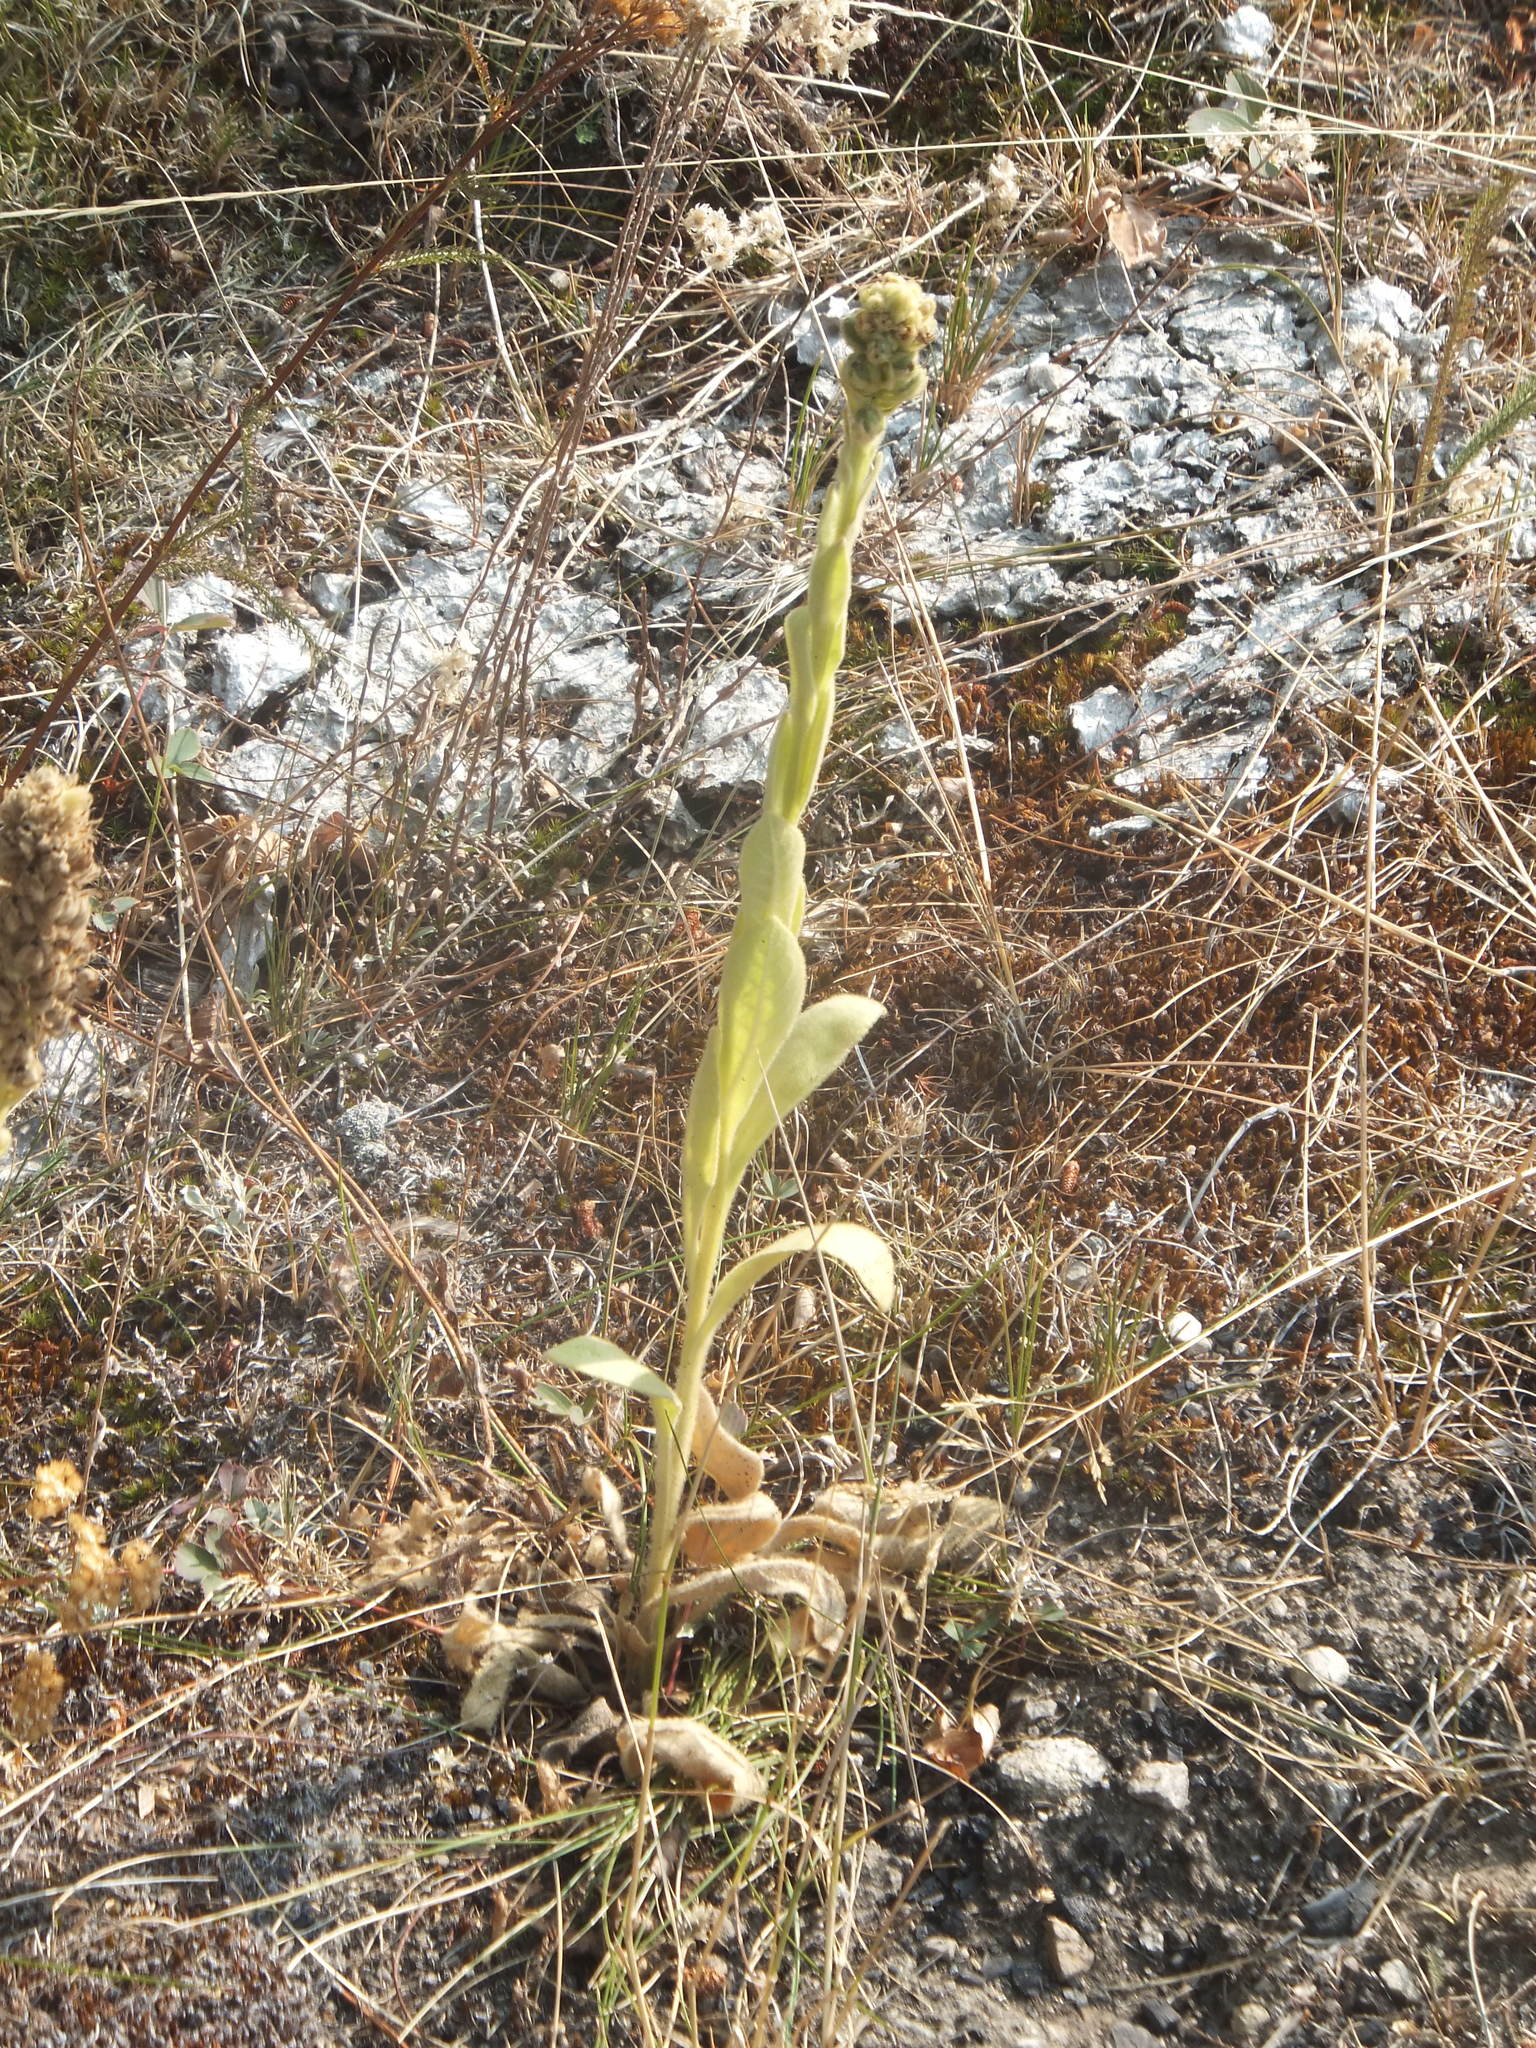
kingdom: Plantae
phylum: Tracheophyta
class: Magnoliopsida
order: Lamiales
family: Scrophulariaceae
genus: Verbascum
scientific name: Verbascum thapsus
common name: Common mullein
